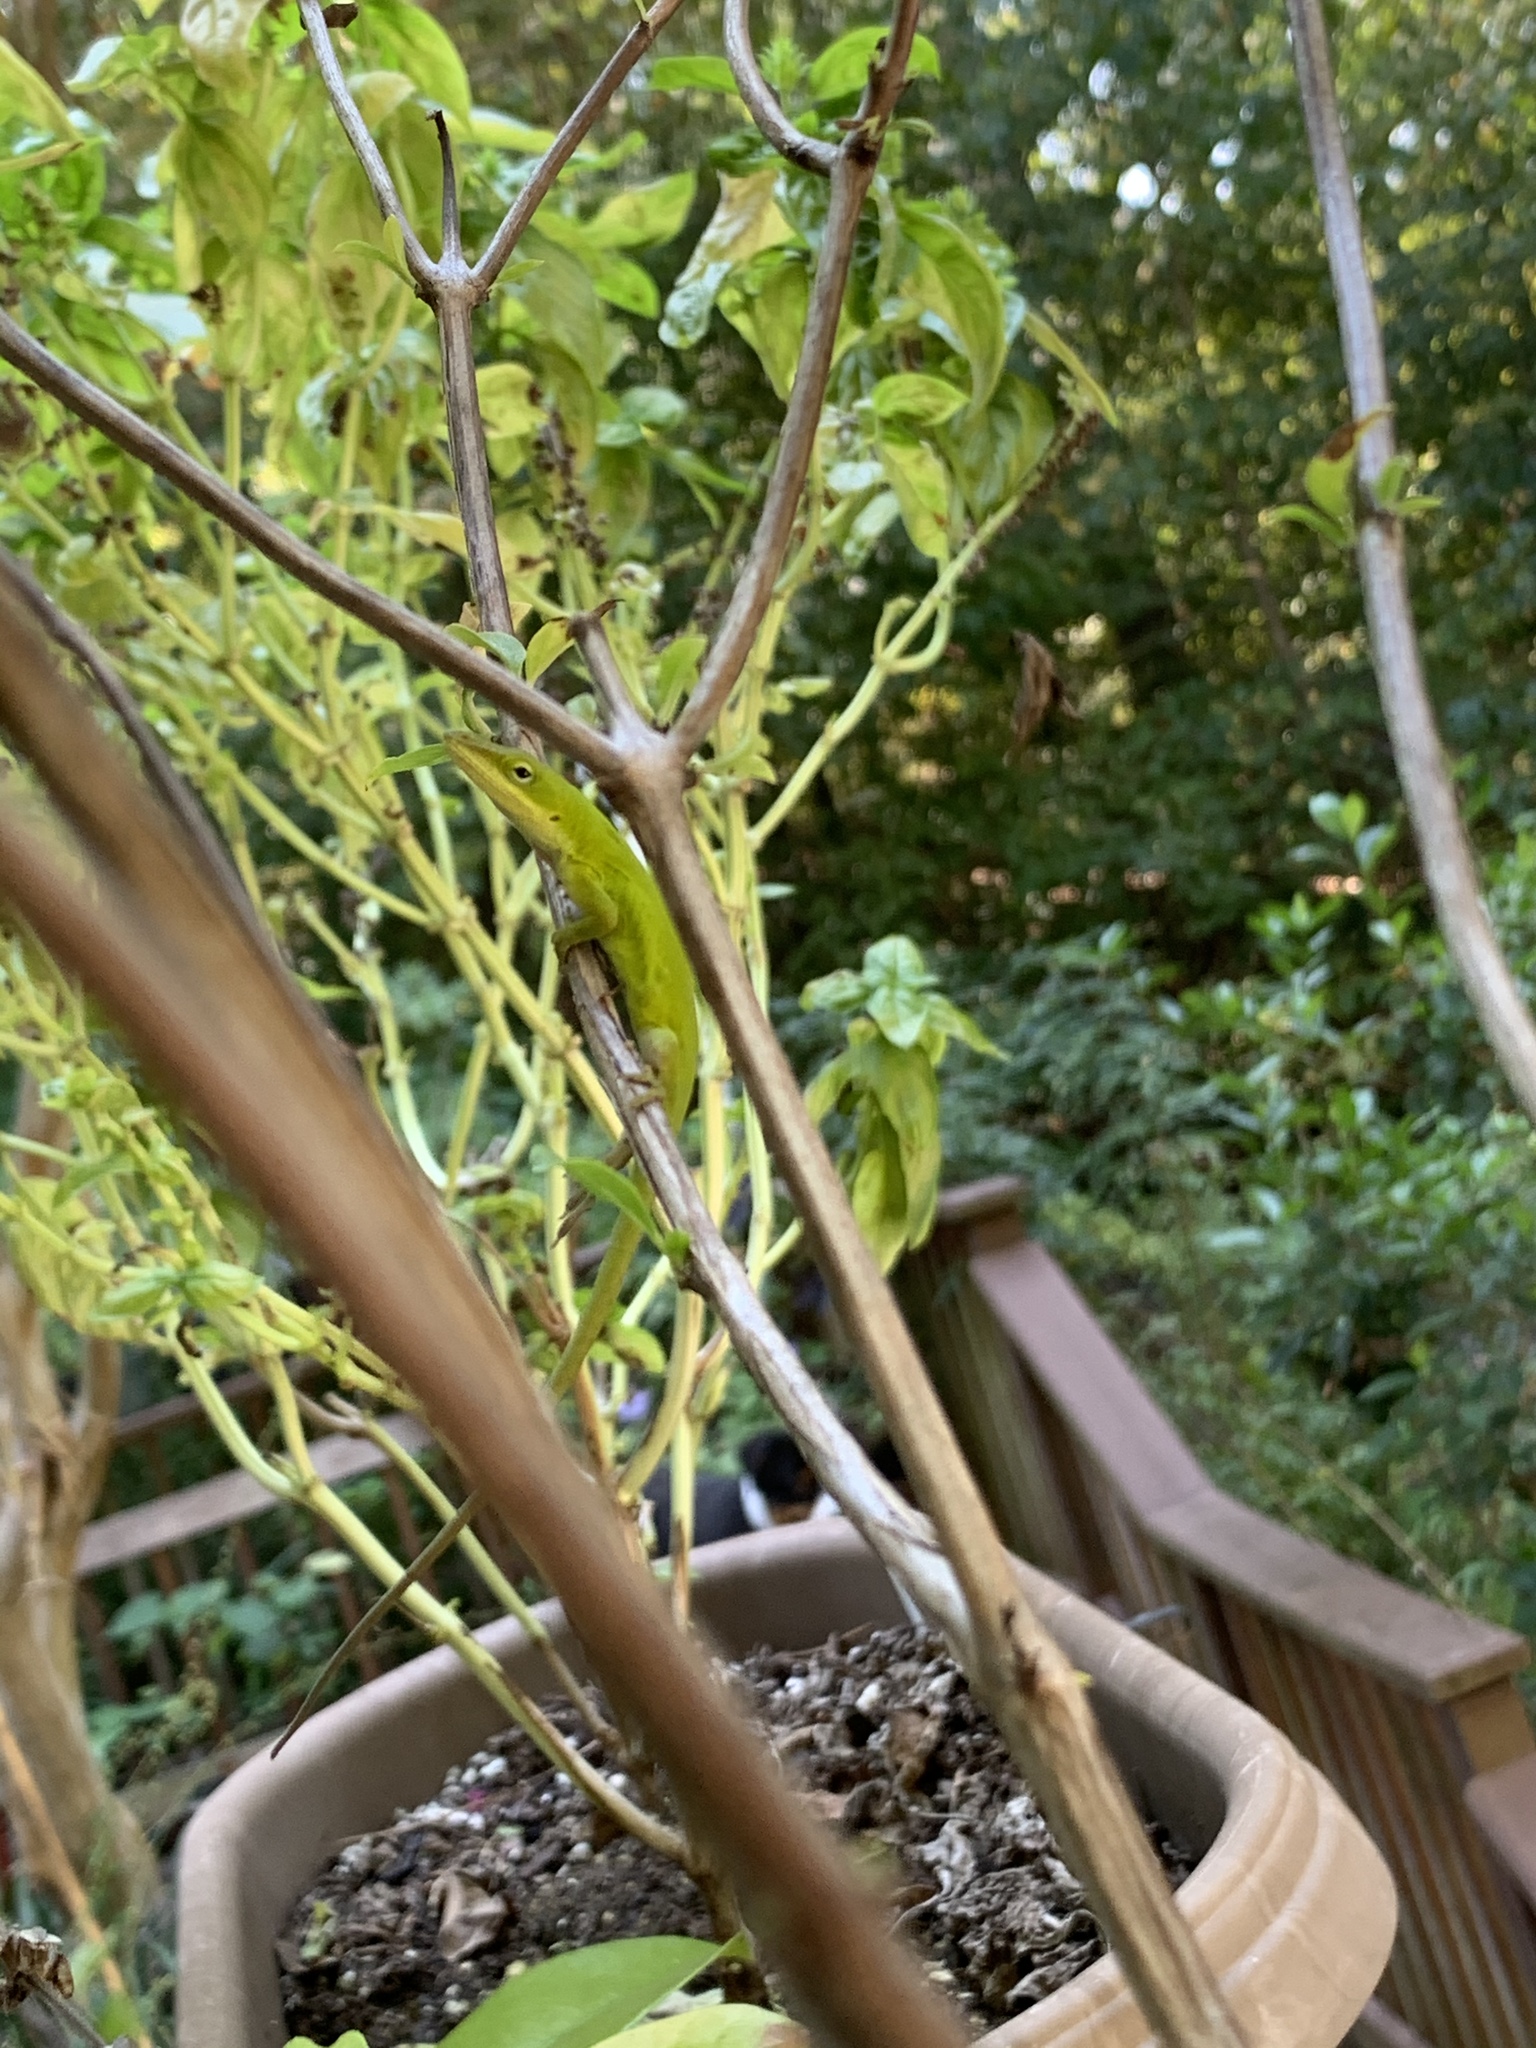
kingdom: Animalia
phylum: Chordata
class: Squamata
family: Dactyloidae
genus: Anolis
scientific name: Anolis carolinensis
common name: Green anole
